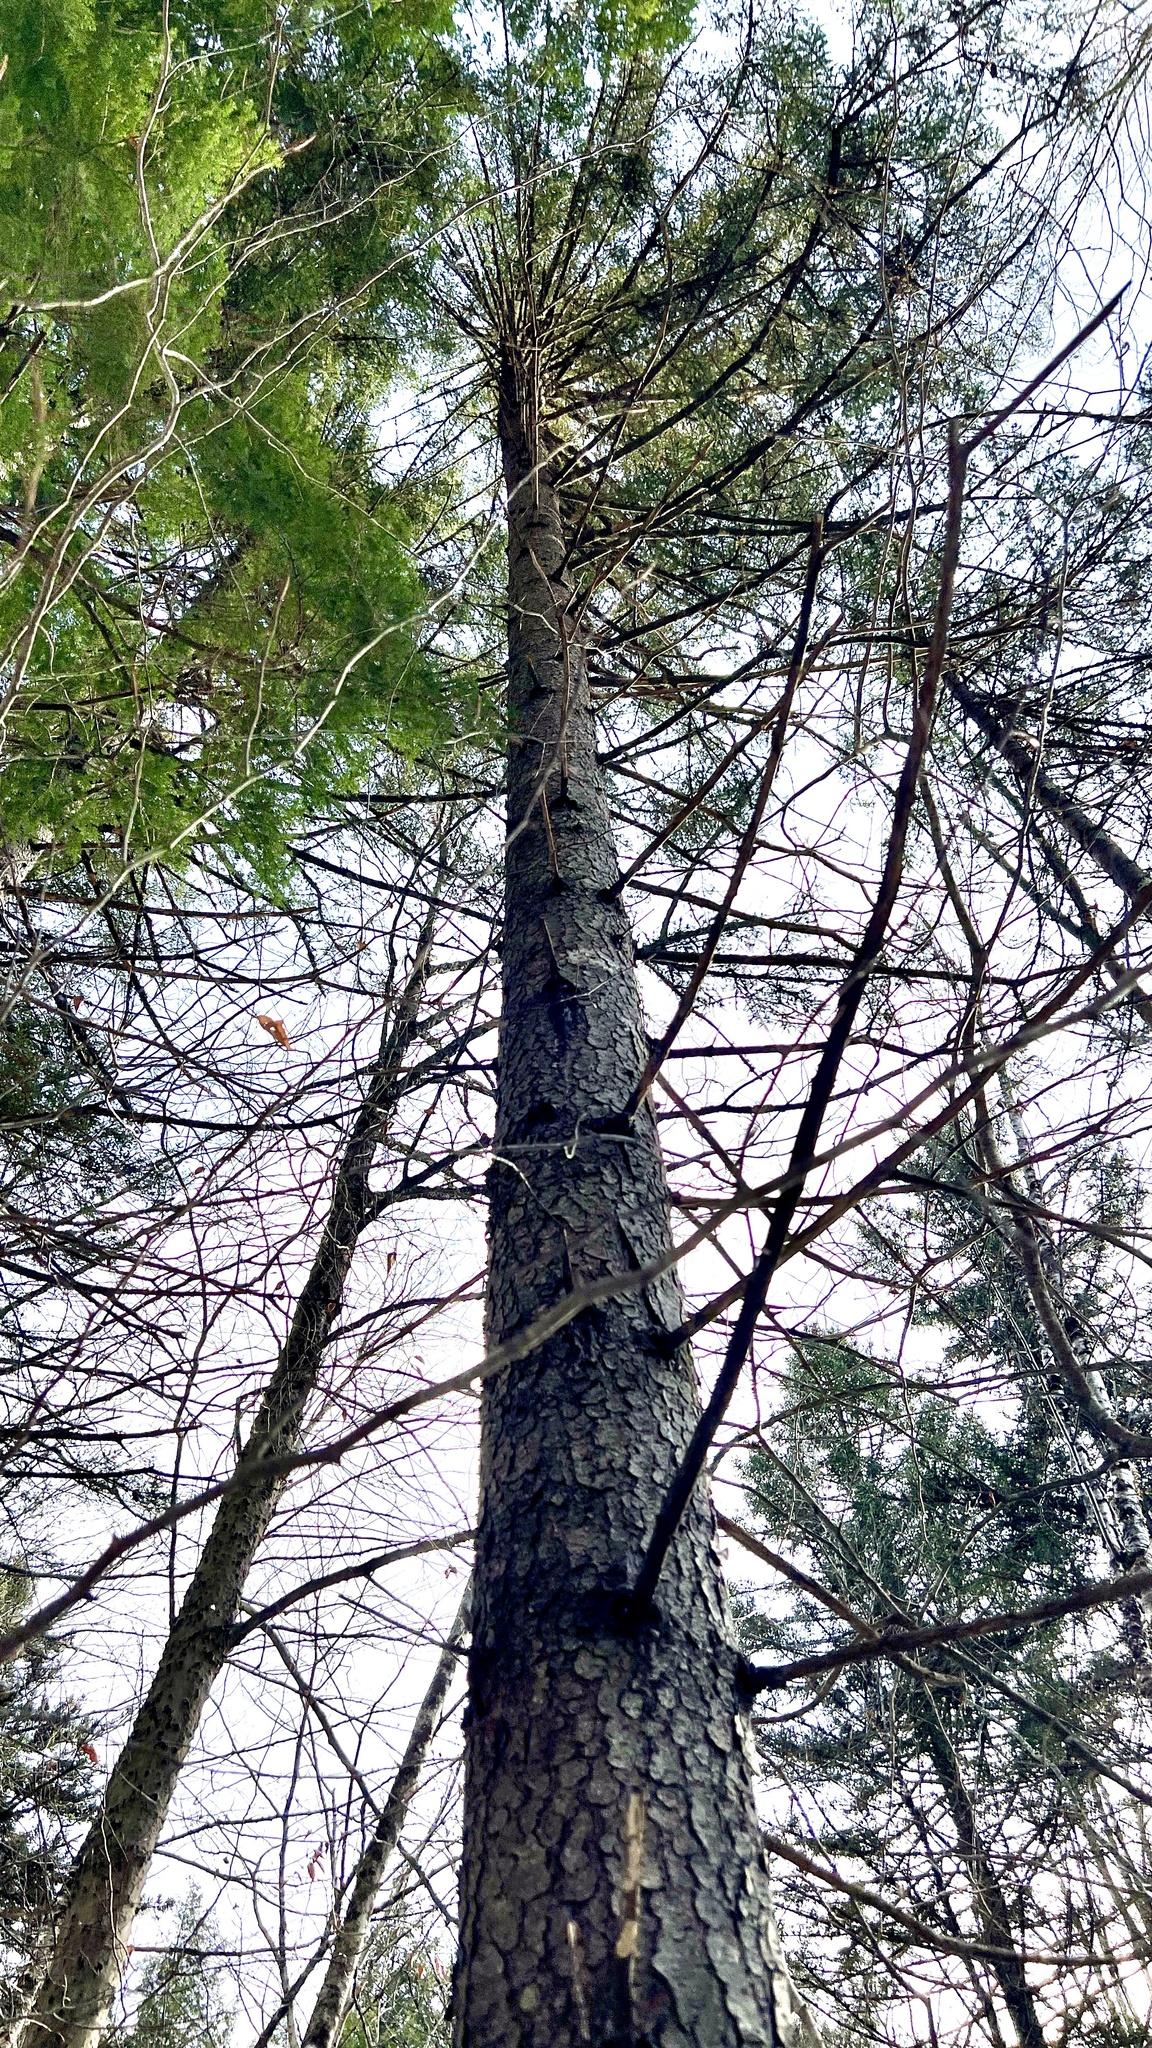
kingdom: Plantae
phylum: Tracheophyta
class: Pinopsida
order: Pinales
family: Pinaceae
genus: Picea
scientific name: Picea rubens
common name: Red spruce
